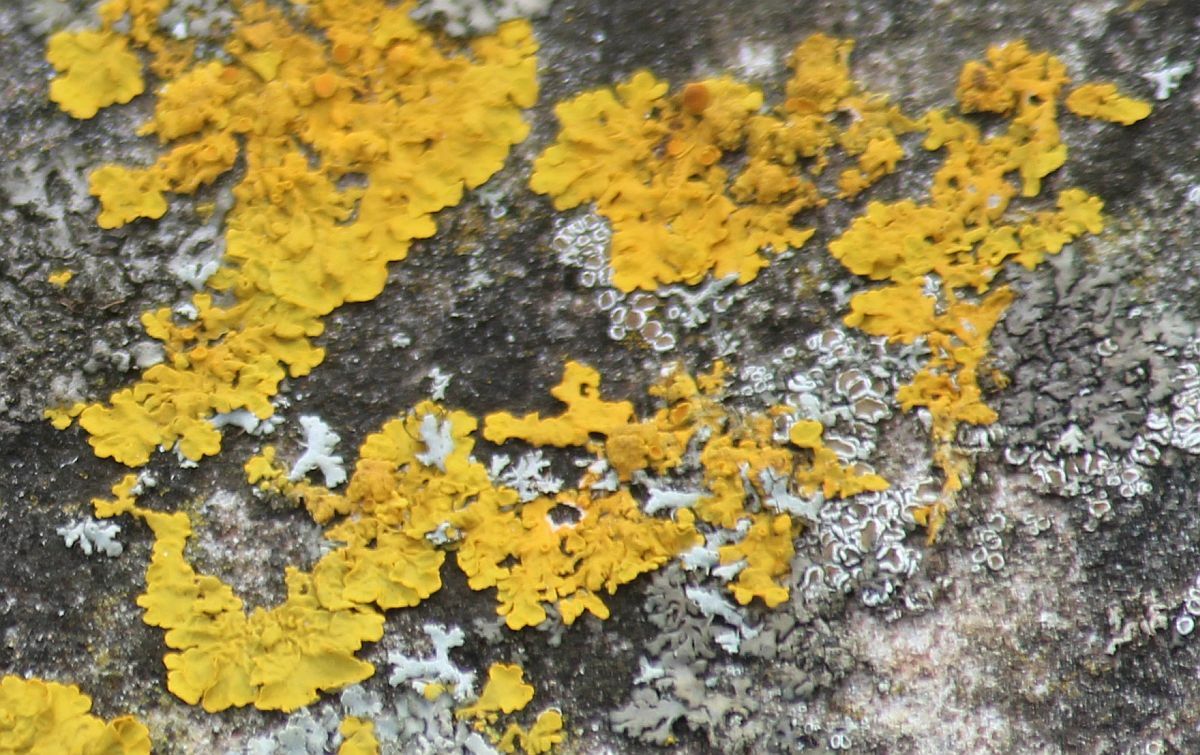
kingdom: Fungi
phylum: Ascomycota
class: Lecanoromycetes
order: Teloschistales
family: Teloschistaceae
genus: Xanthoria
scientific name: Xanthoria parietina
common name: Common orange lichen
